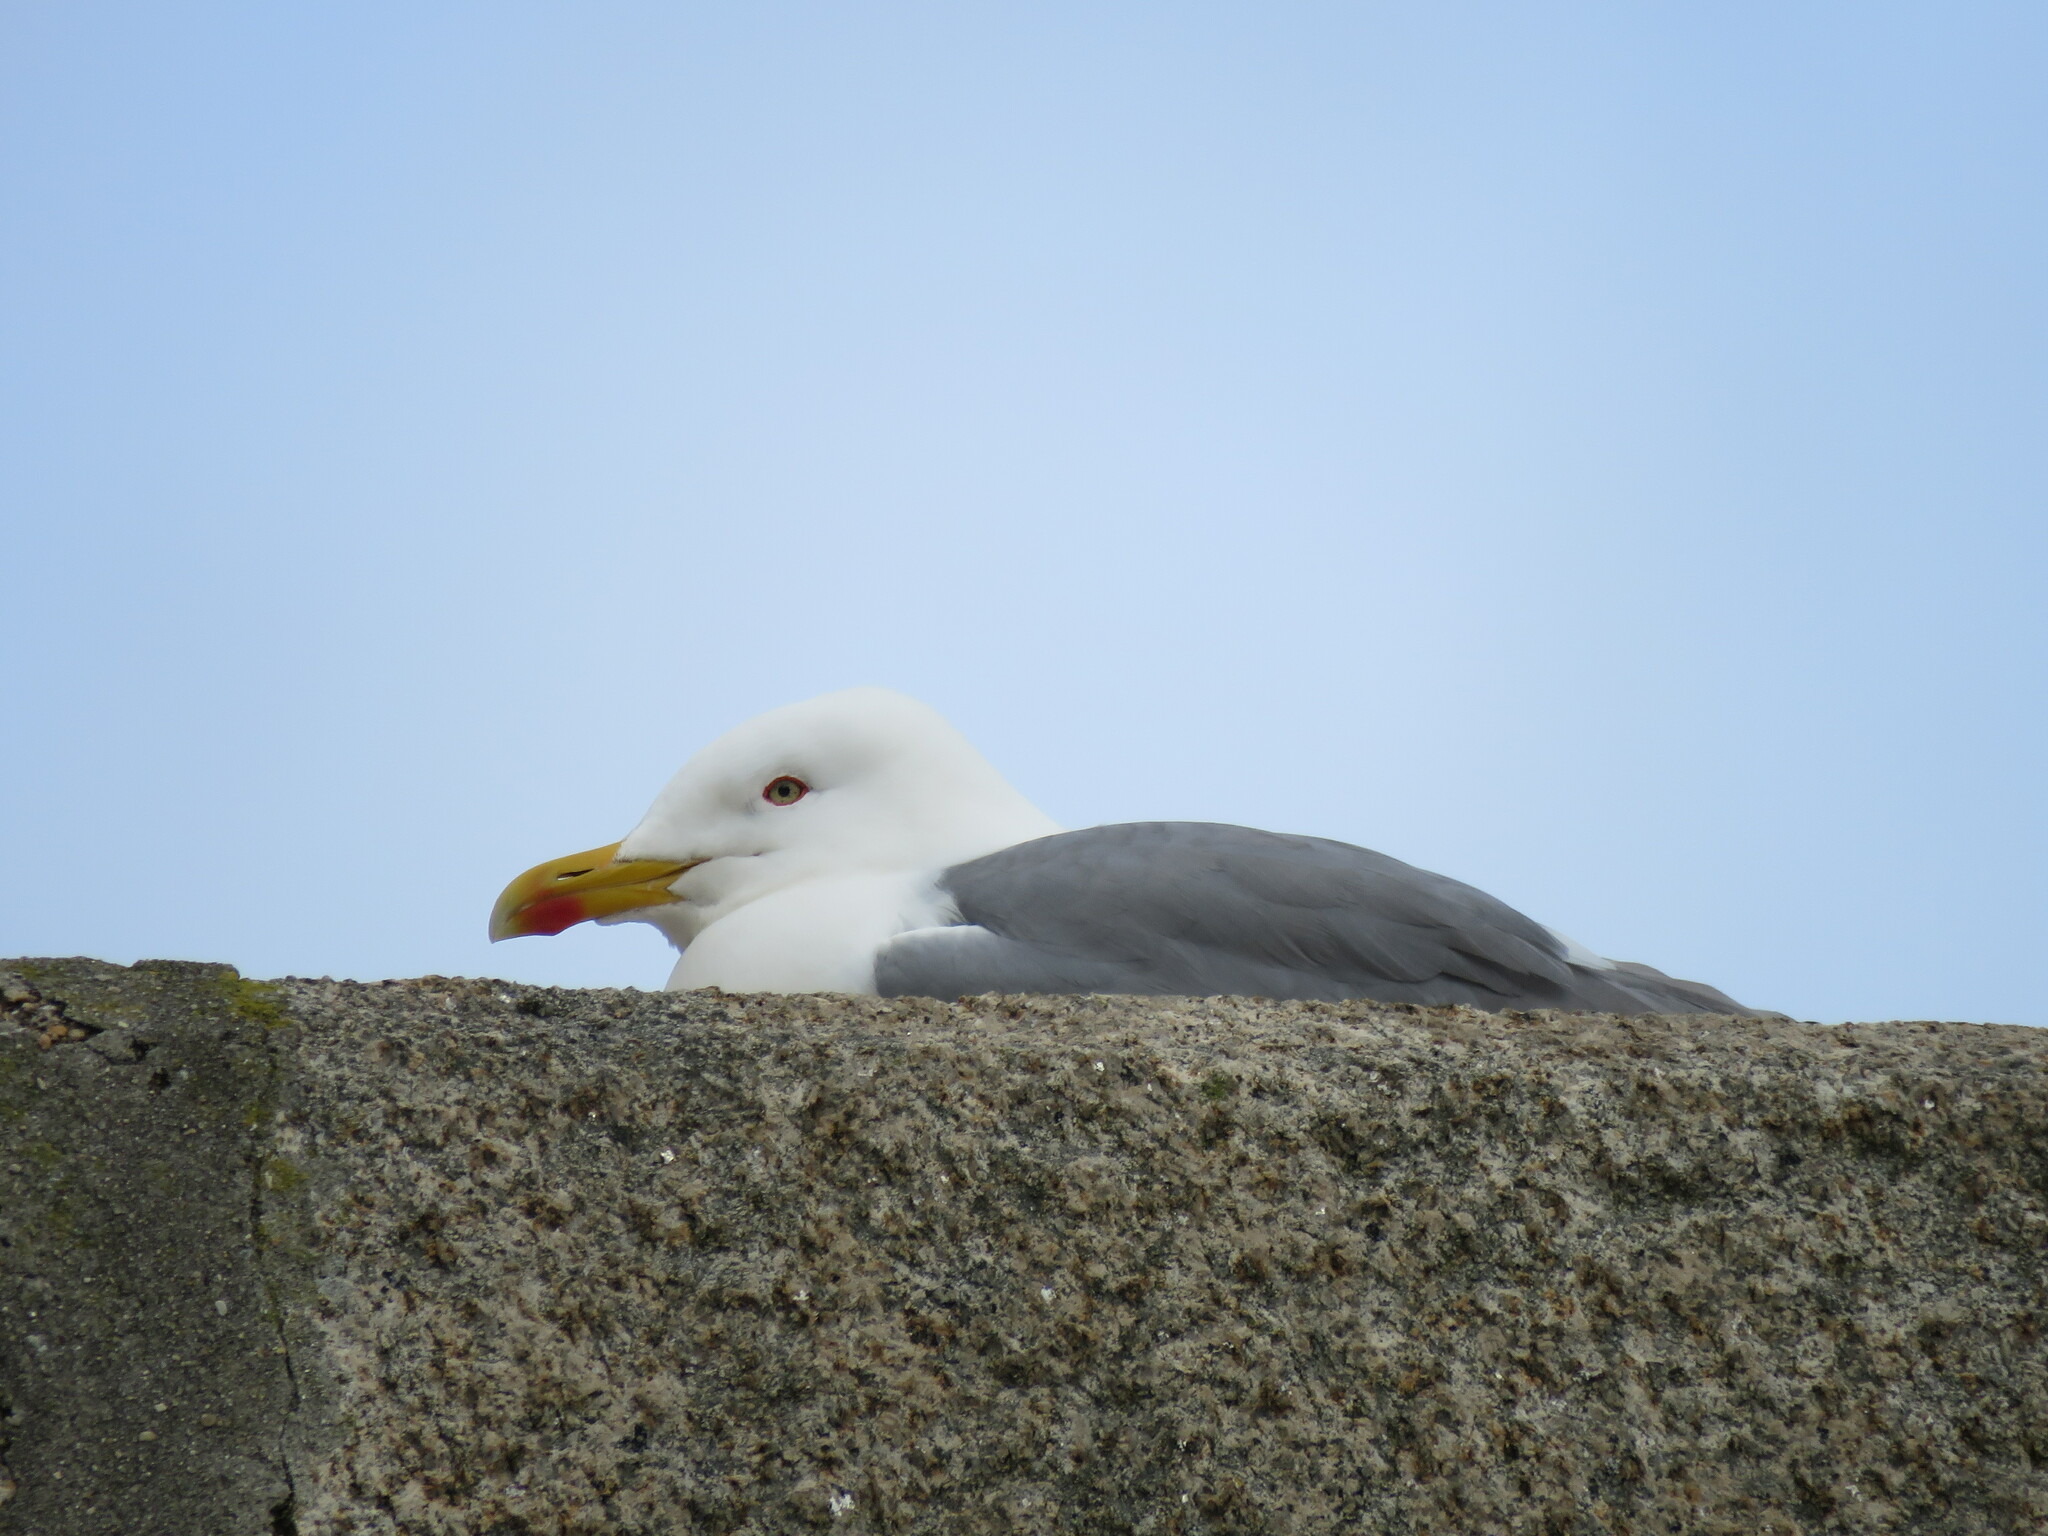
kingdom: Animalia
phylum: Chordata
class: Aves
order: Charadriiformes
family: Laridae
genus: Larus
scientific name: Larus michahellis
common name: Yellow-legged gull
